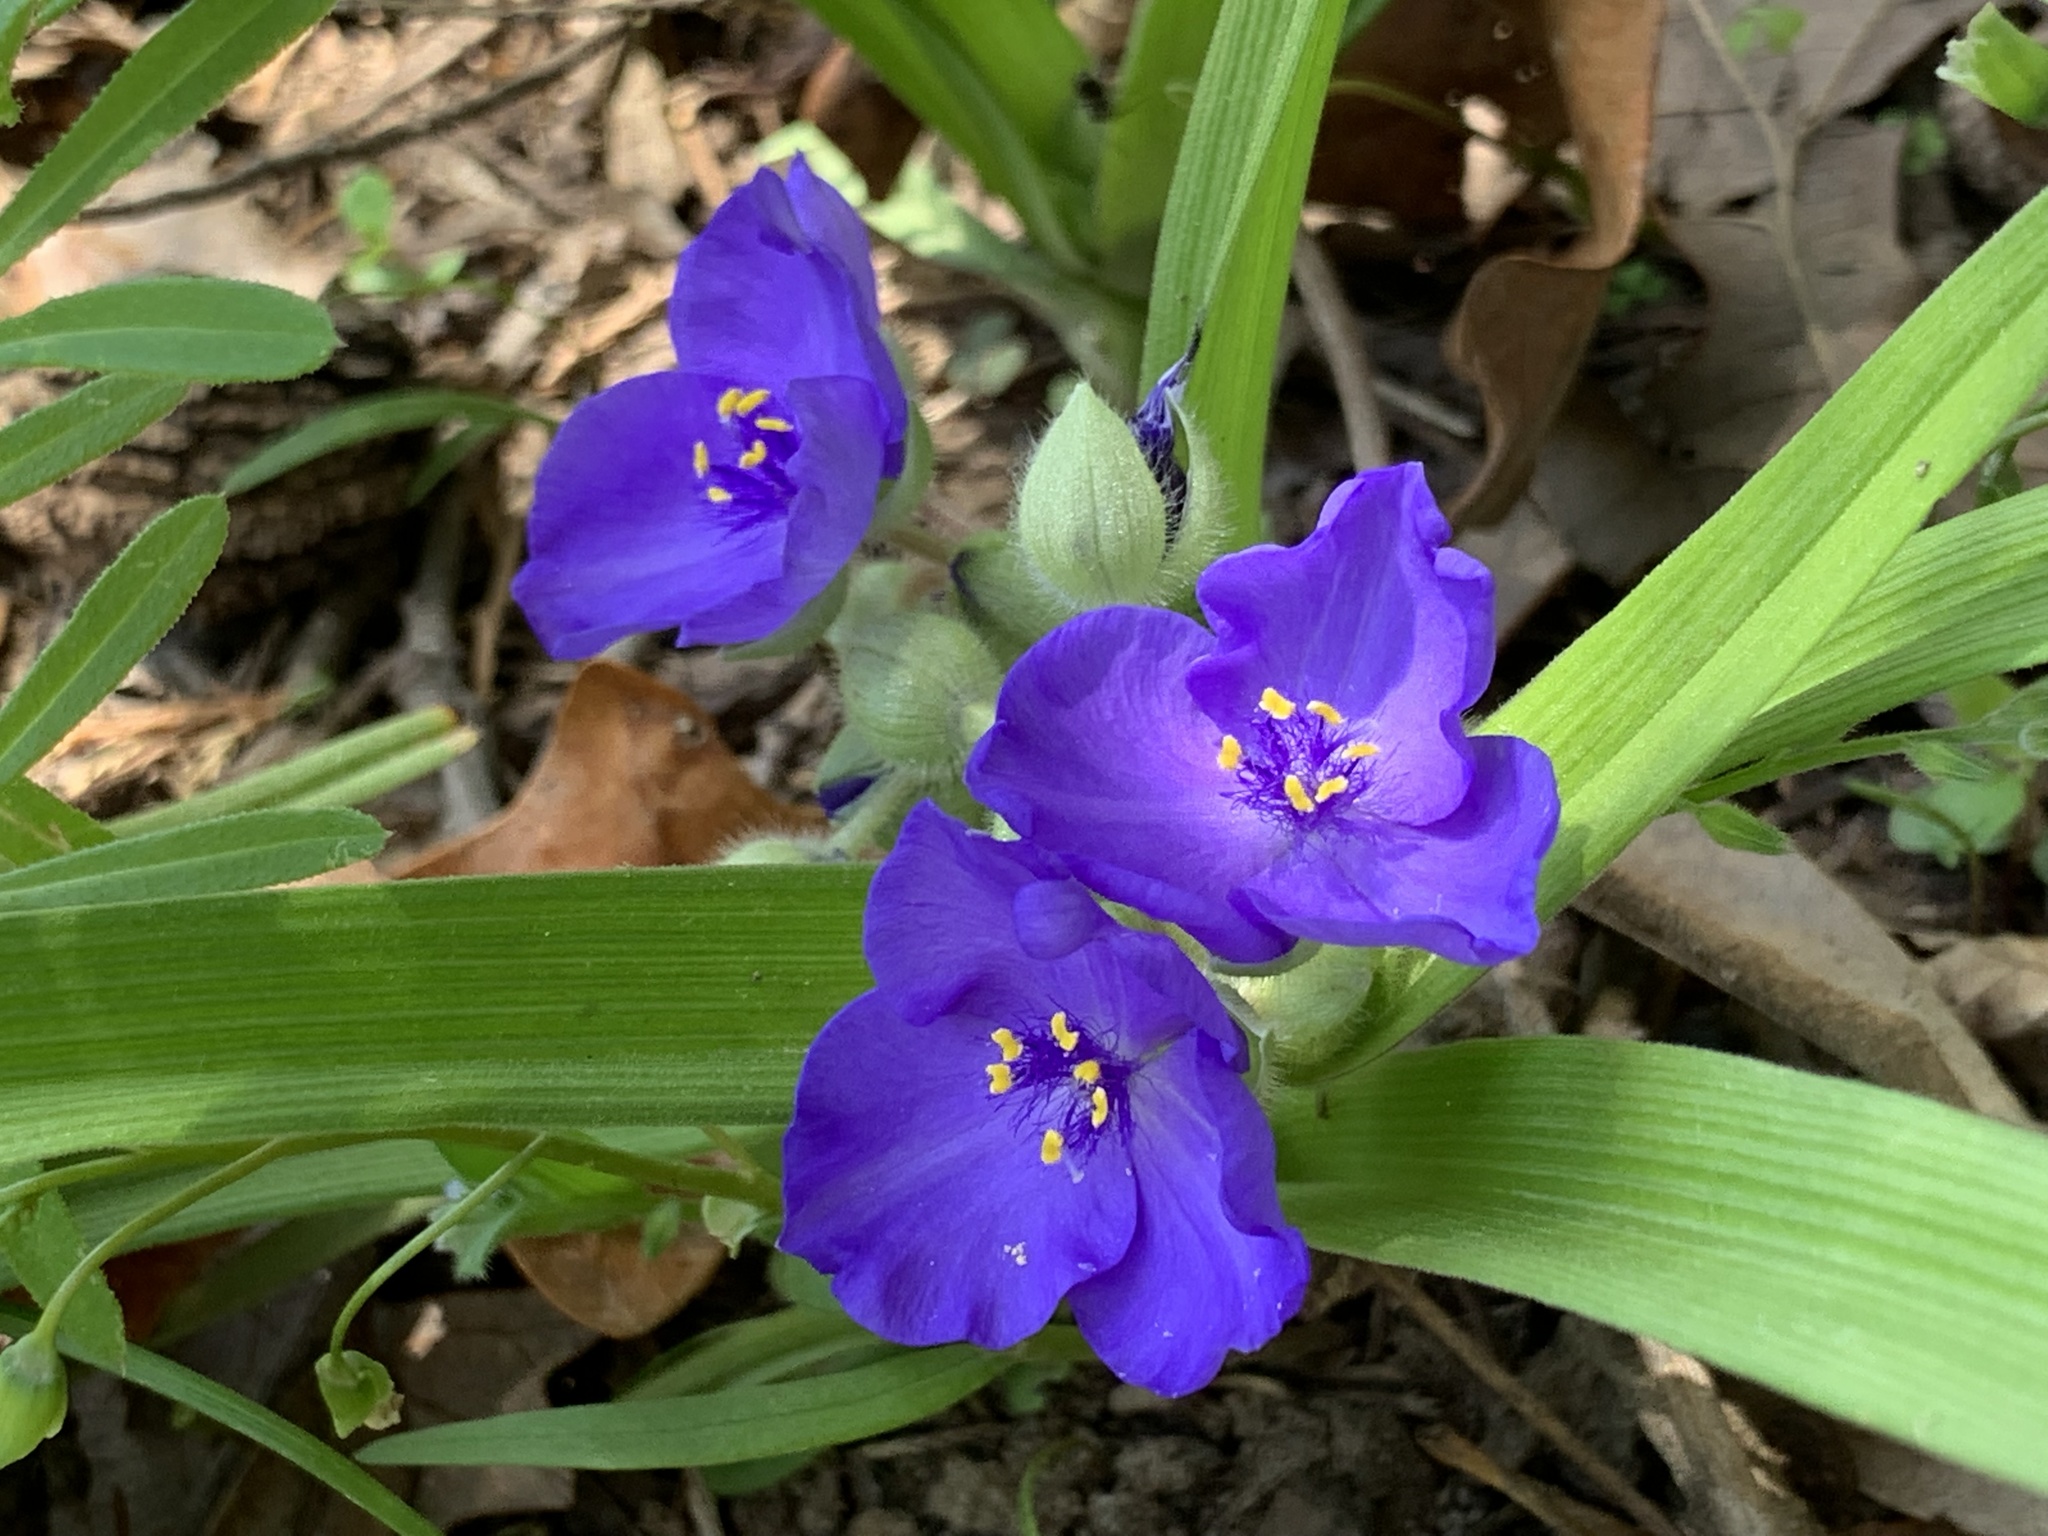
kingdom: Plantae
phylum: Tracheophyta
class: Liliopsida
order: Commelinales
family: Commelinaceae
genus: Tradescantia
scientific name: Tradescantia virginiana
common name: Spiderwort
